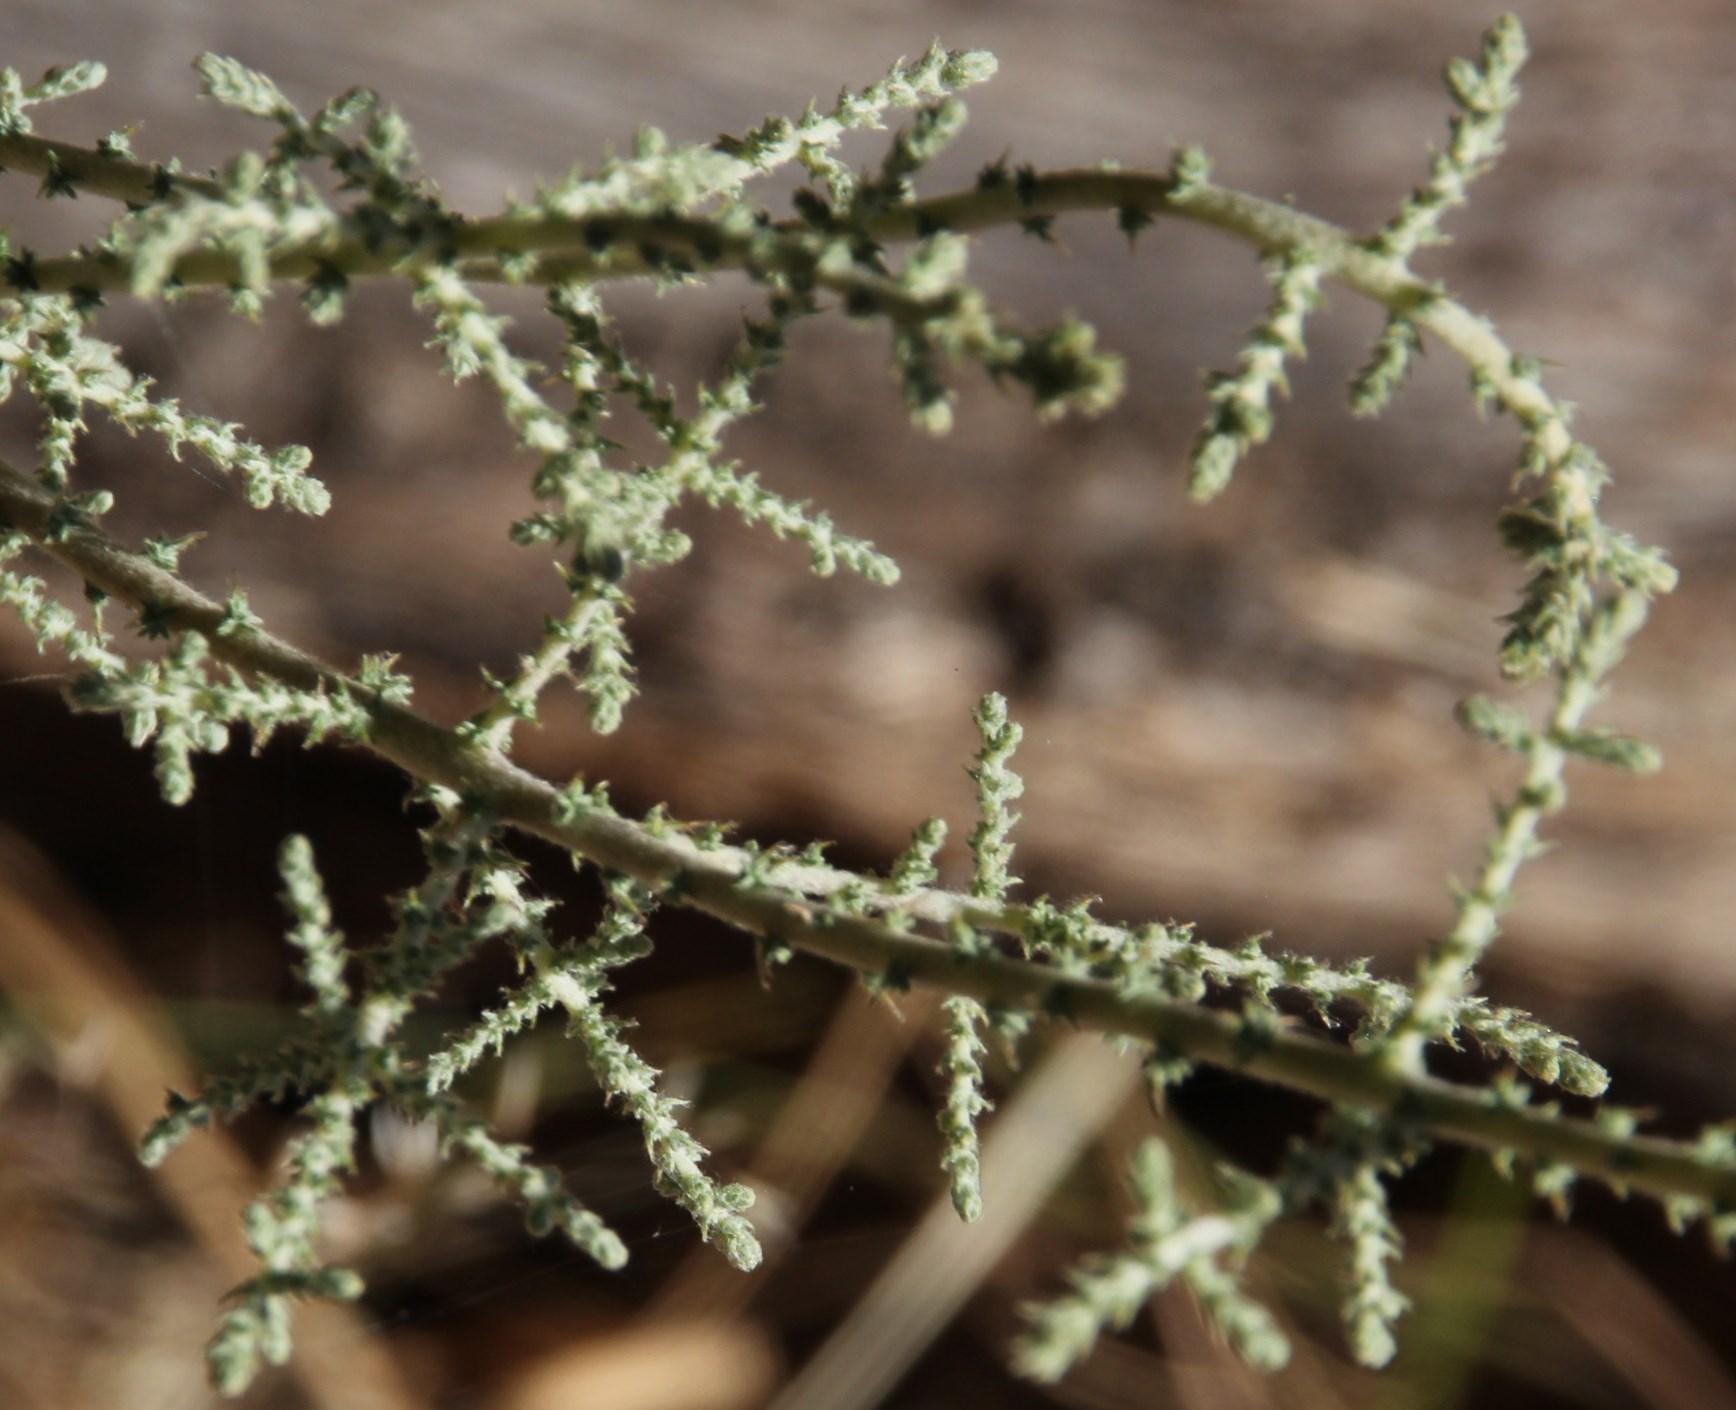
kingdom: Plantae
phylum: Tracheophyta
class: Magnoliopsida
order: Asterales
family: Asteraceae
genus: Seriphium
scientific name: Seriphium plumosum
